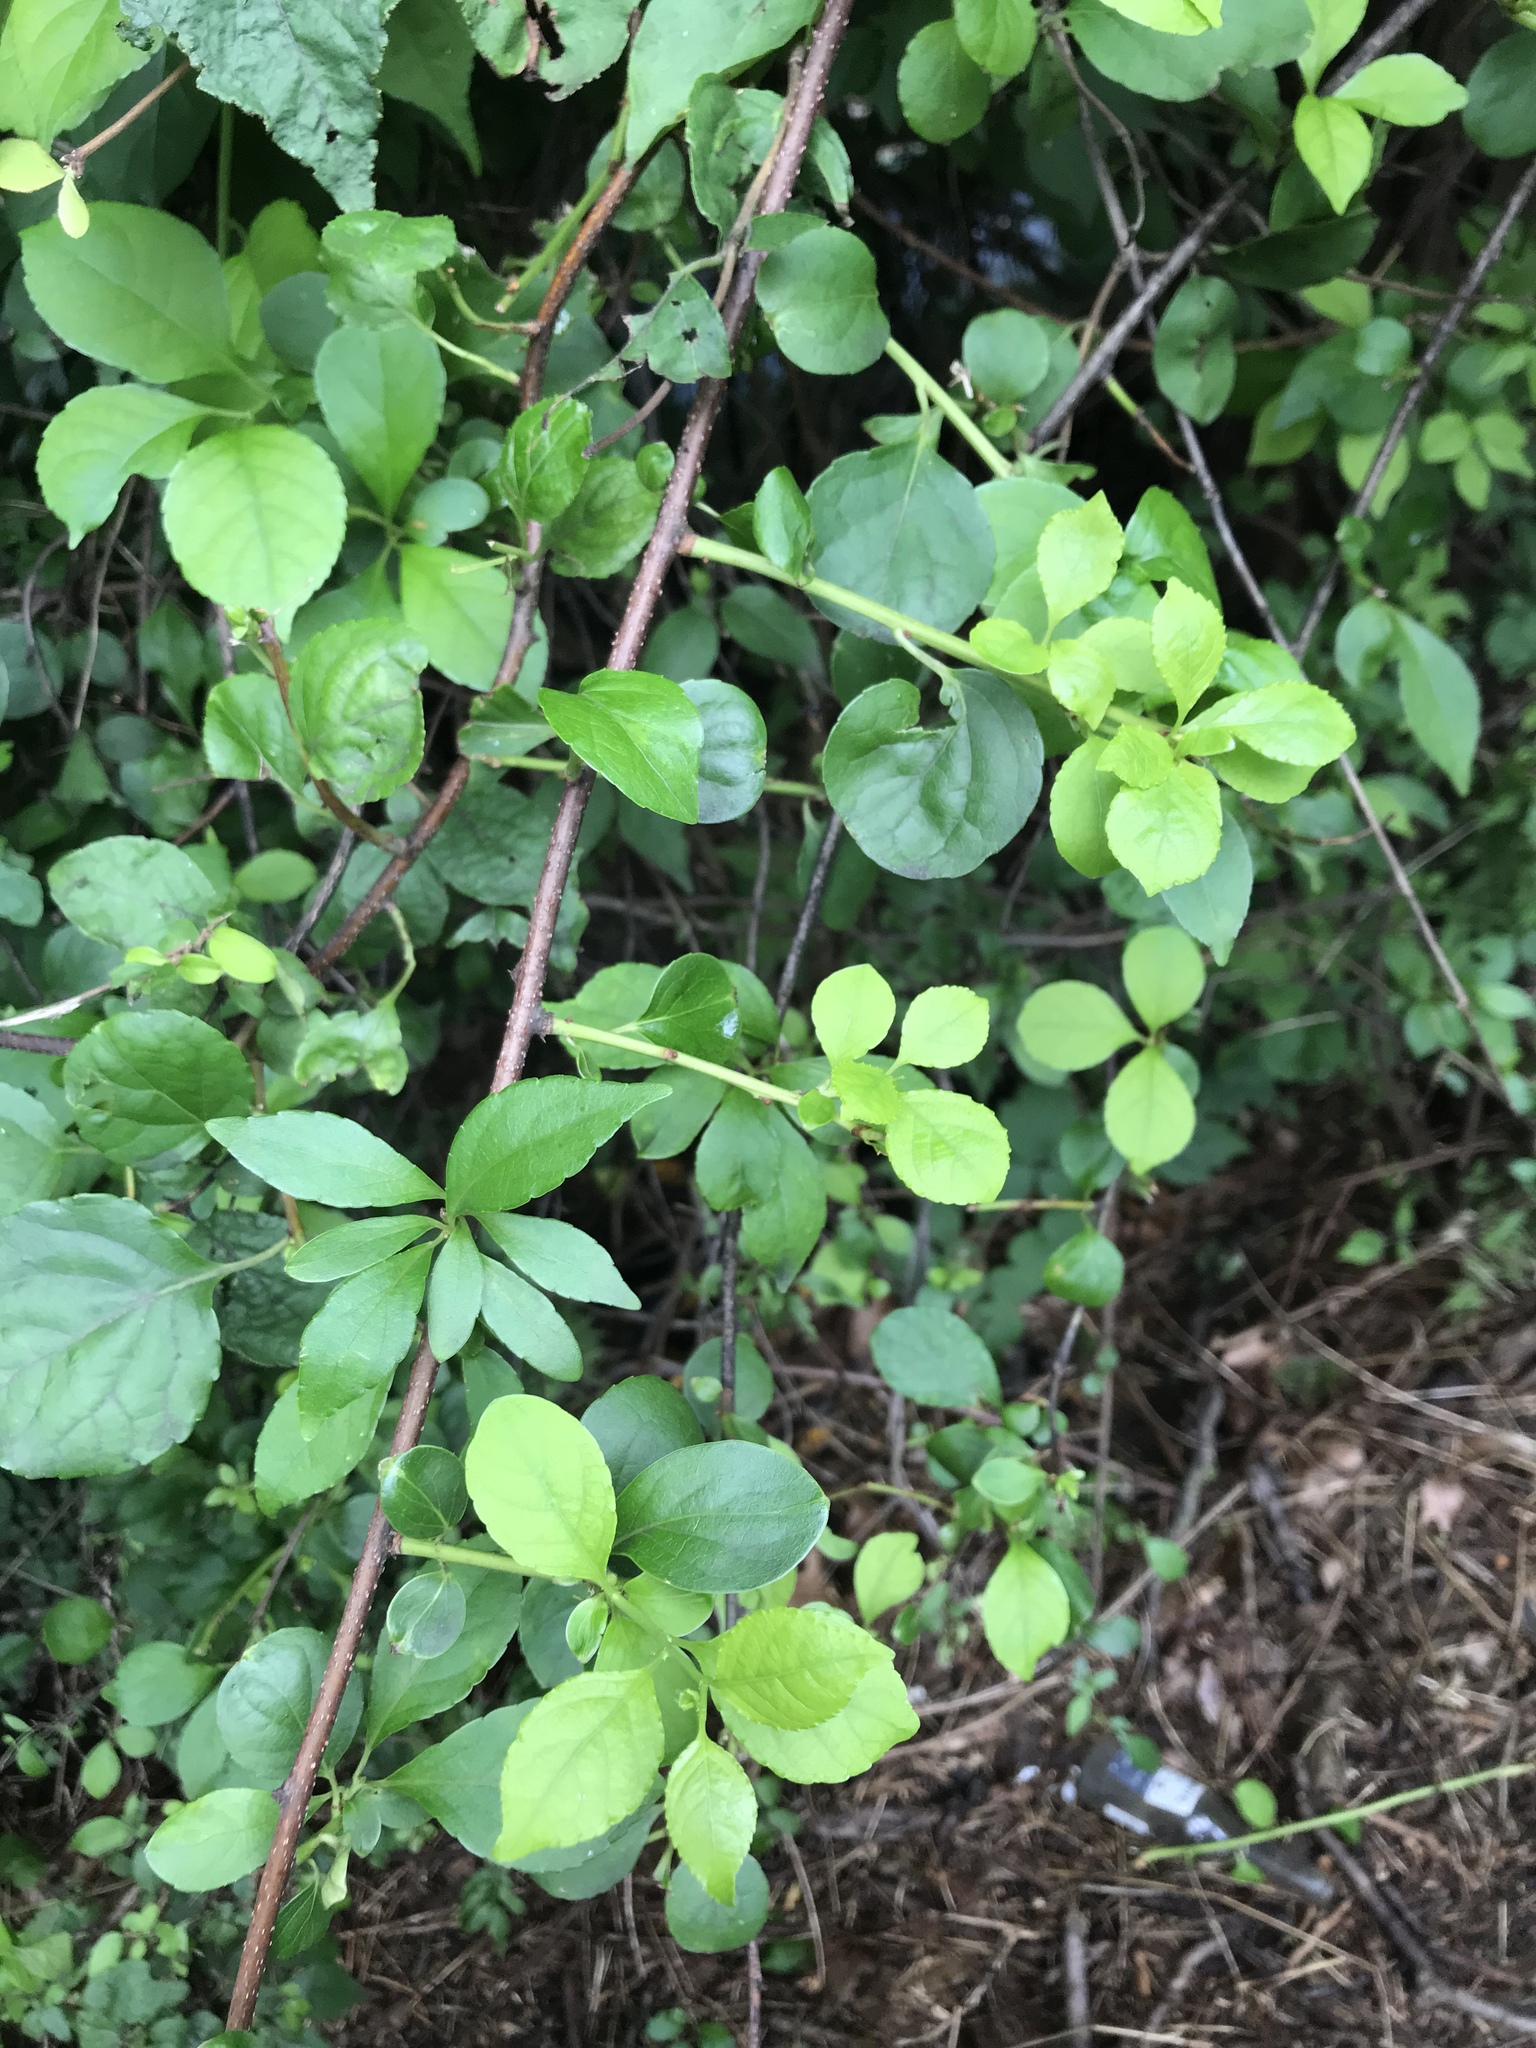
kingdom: Plantae
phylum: Tracheophyta
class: Magnoliopsida
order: Celastrales
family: Celastraceae
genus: Celastrus
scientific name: Celastrus orbiculatus
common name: Oriental bittersweet
